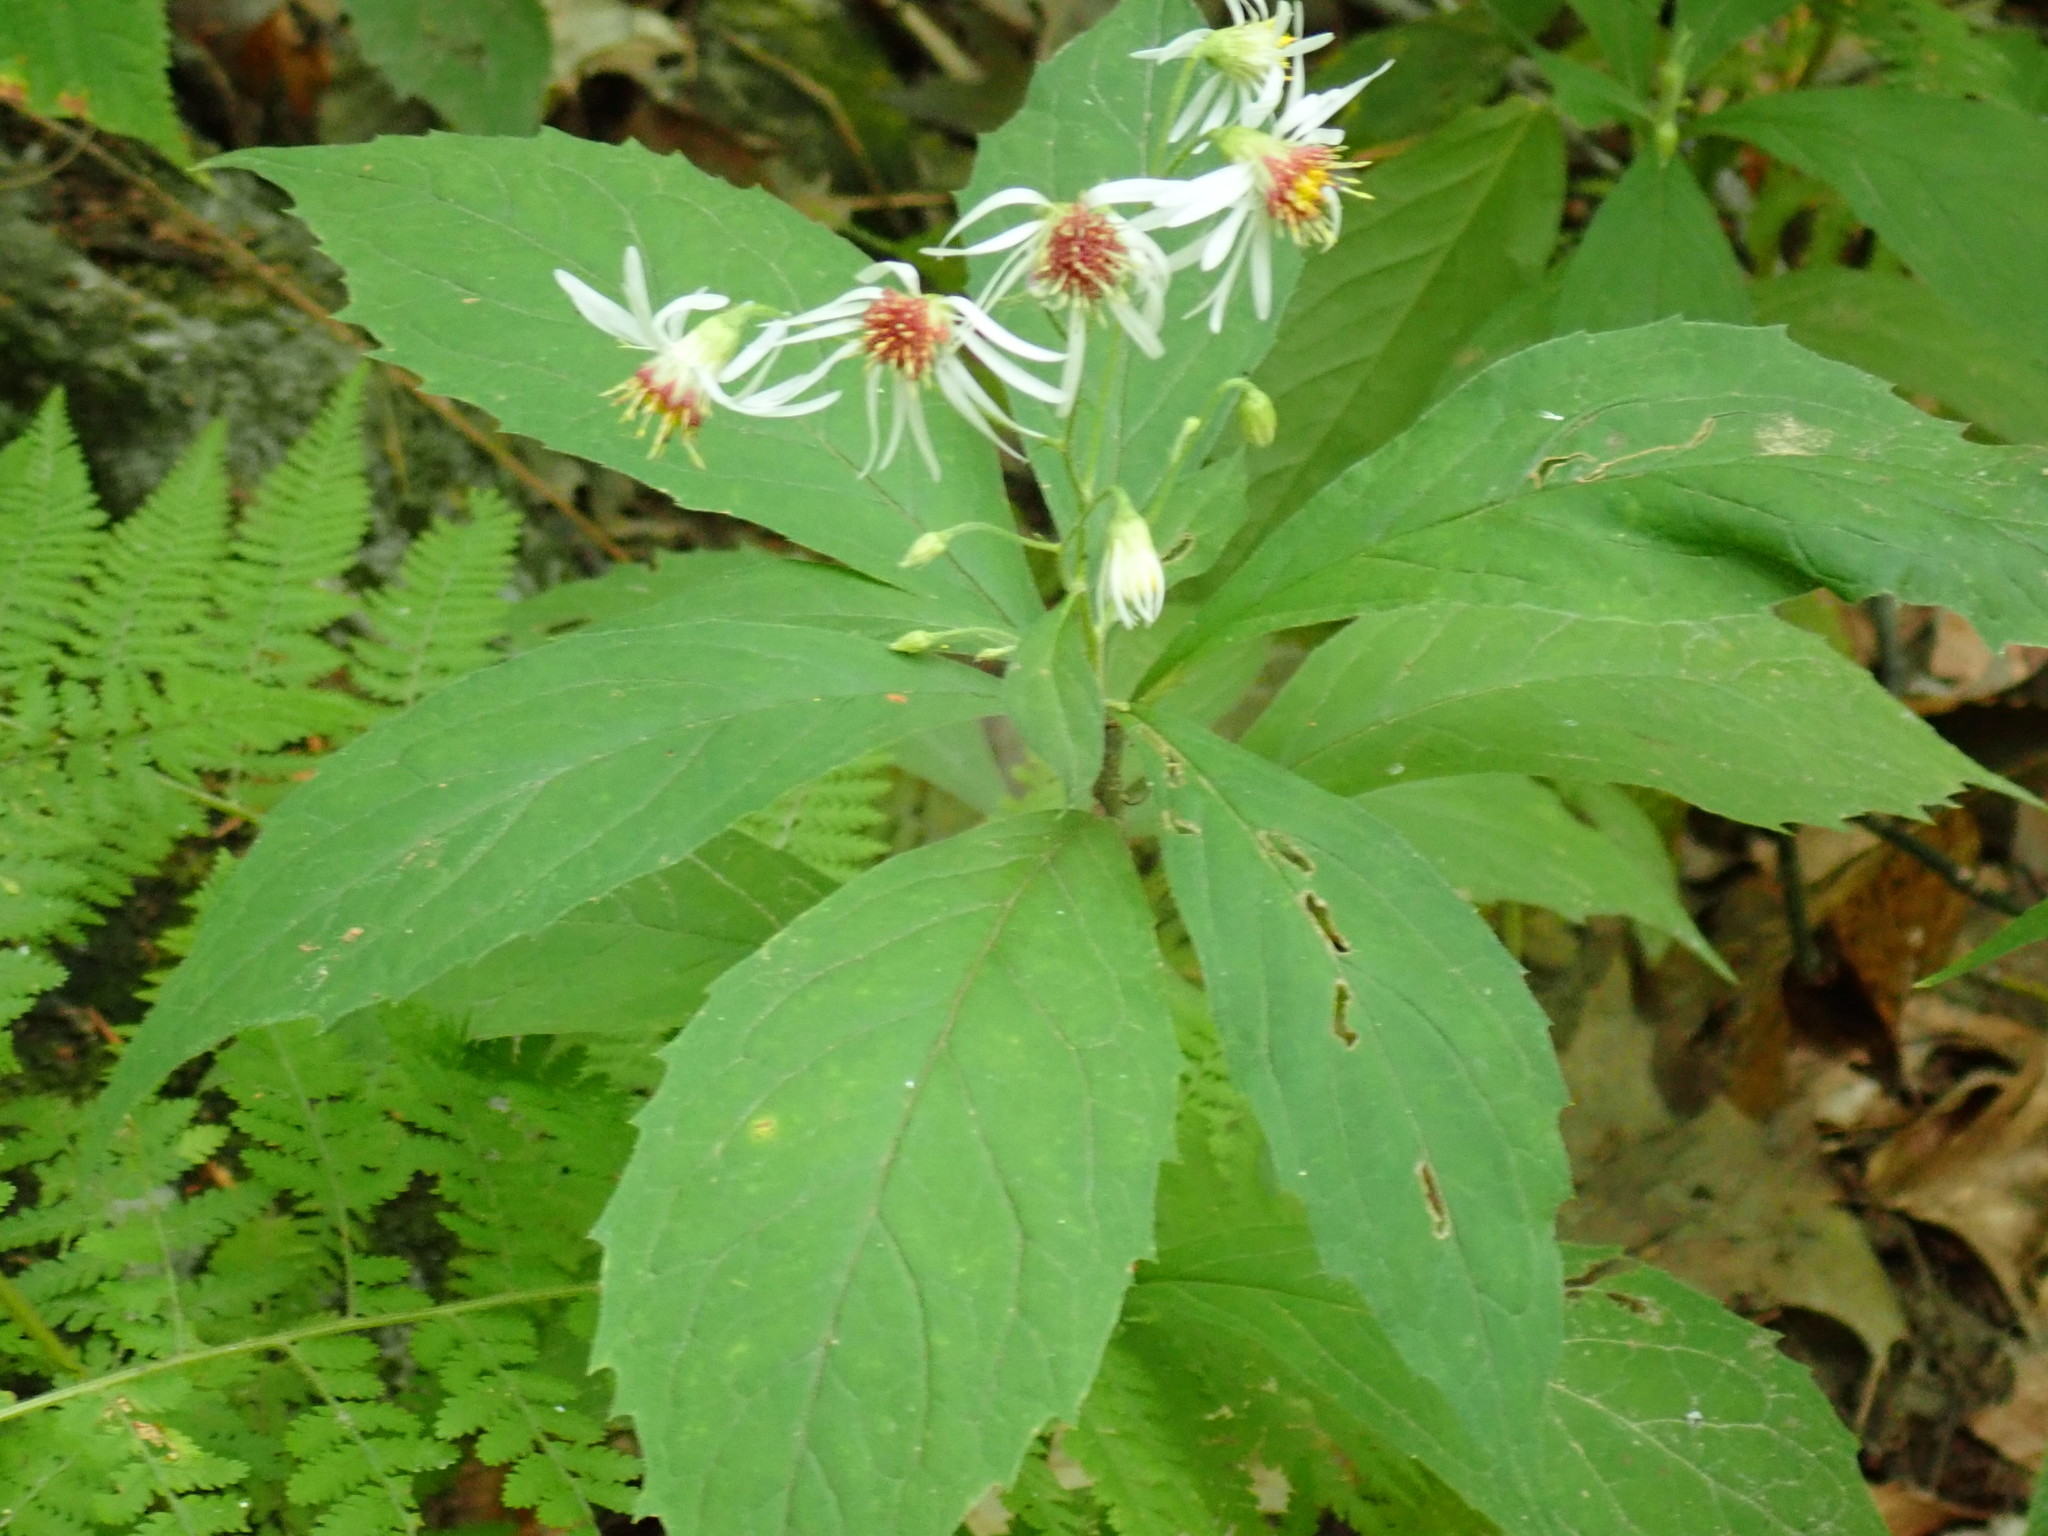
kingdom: Plantae
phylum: Tracheophyta
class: Magnoliopsida
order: Asterales
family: Asteraceae
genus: Oclemena
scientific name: Oclemena acuminata
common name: Mountain aster
